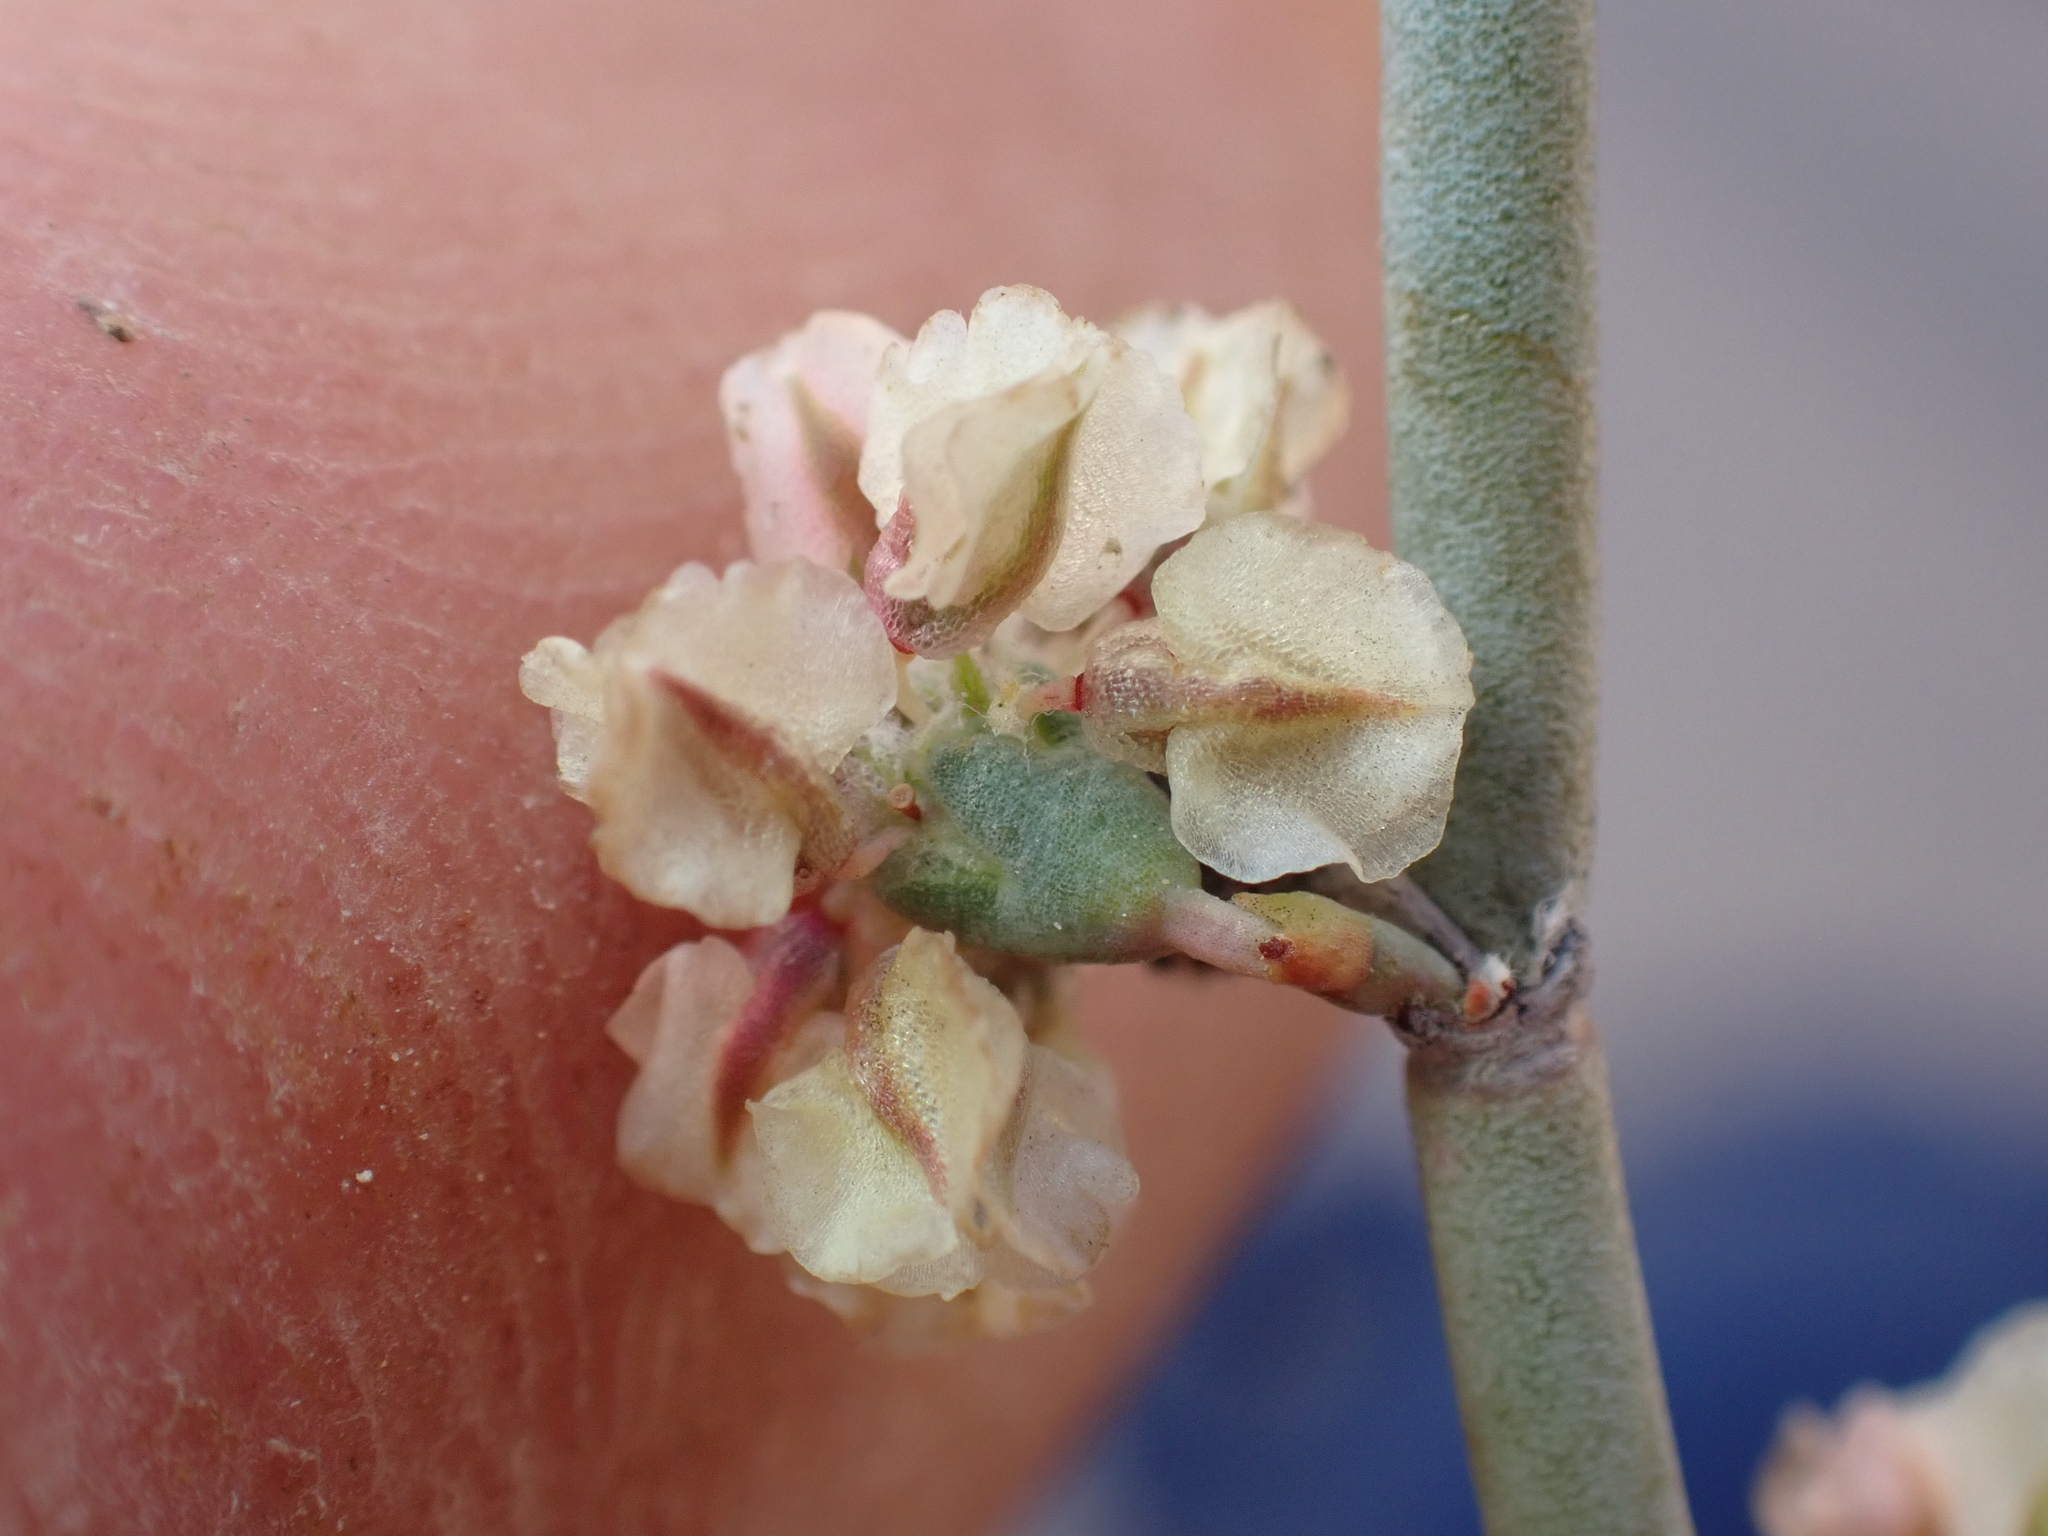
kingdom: Plantae
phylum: Tracheophyta
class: Magnoliopsida
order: Caryophyllales
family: Polygonaceae
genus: Eriogonum
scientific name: Eriogonum moranii
